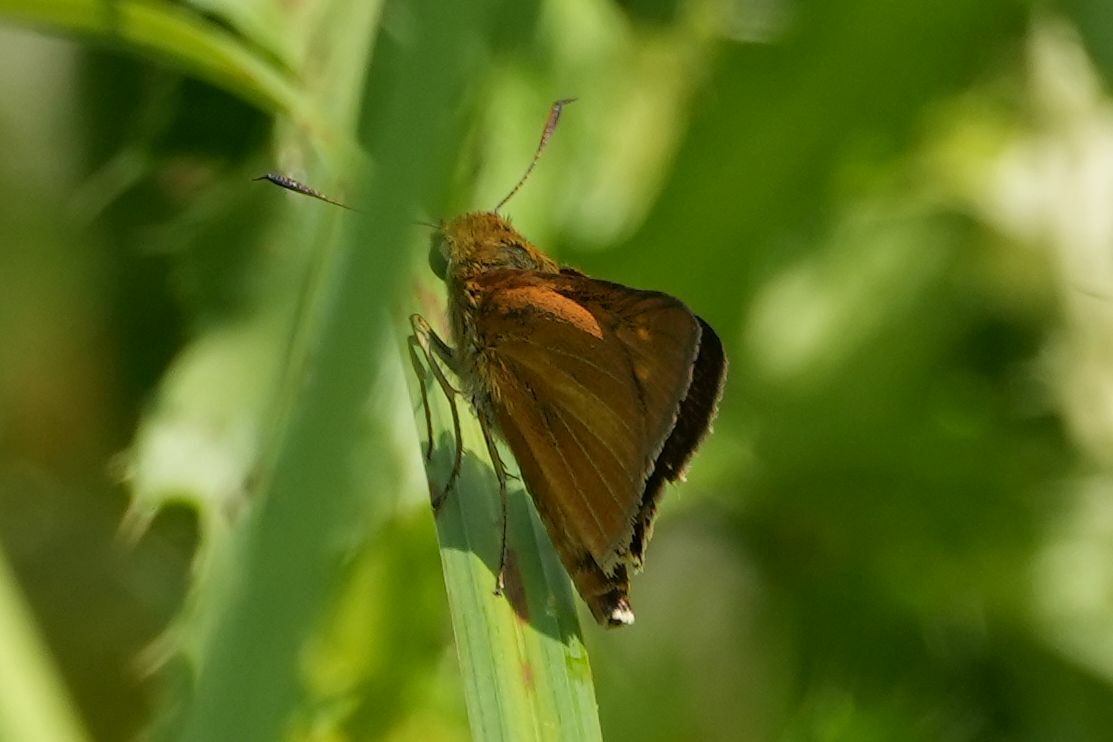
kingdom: Animalia
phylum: Arthropoda
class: Insecta
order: Lepidoptera
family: Hesperiidae
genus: Euphyes
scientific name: Euphyes dion
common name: Dion skipper
